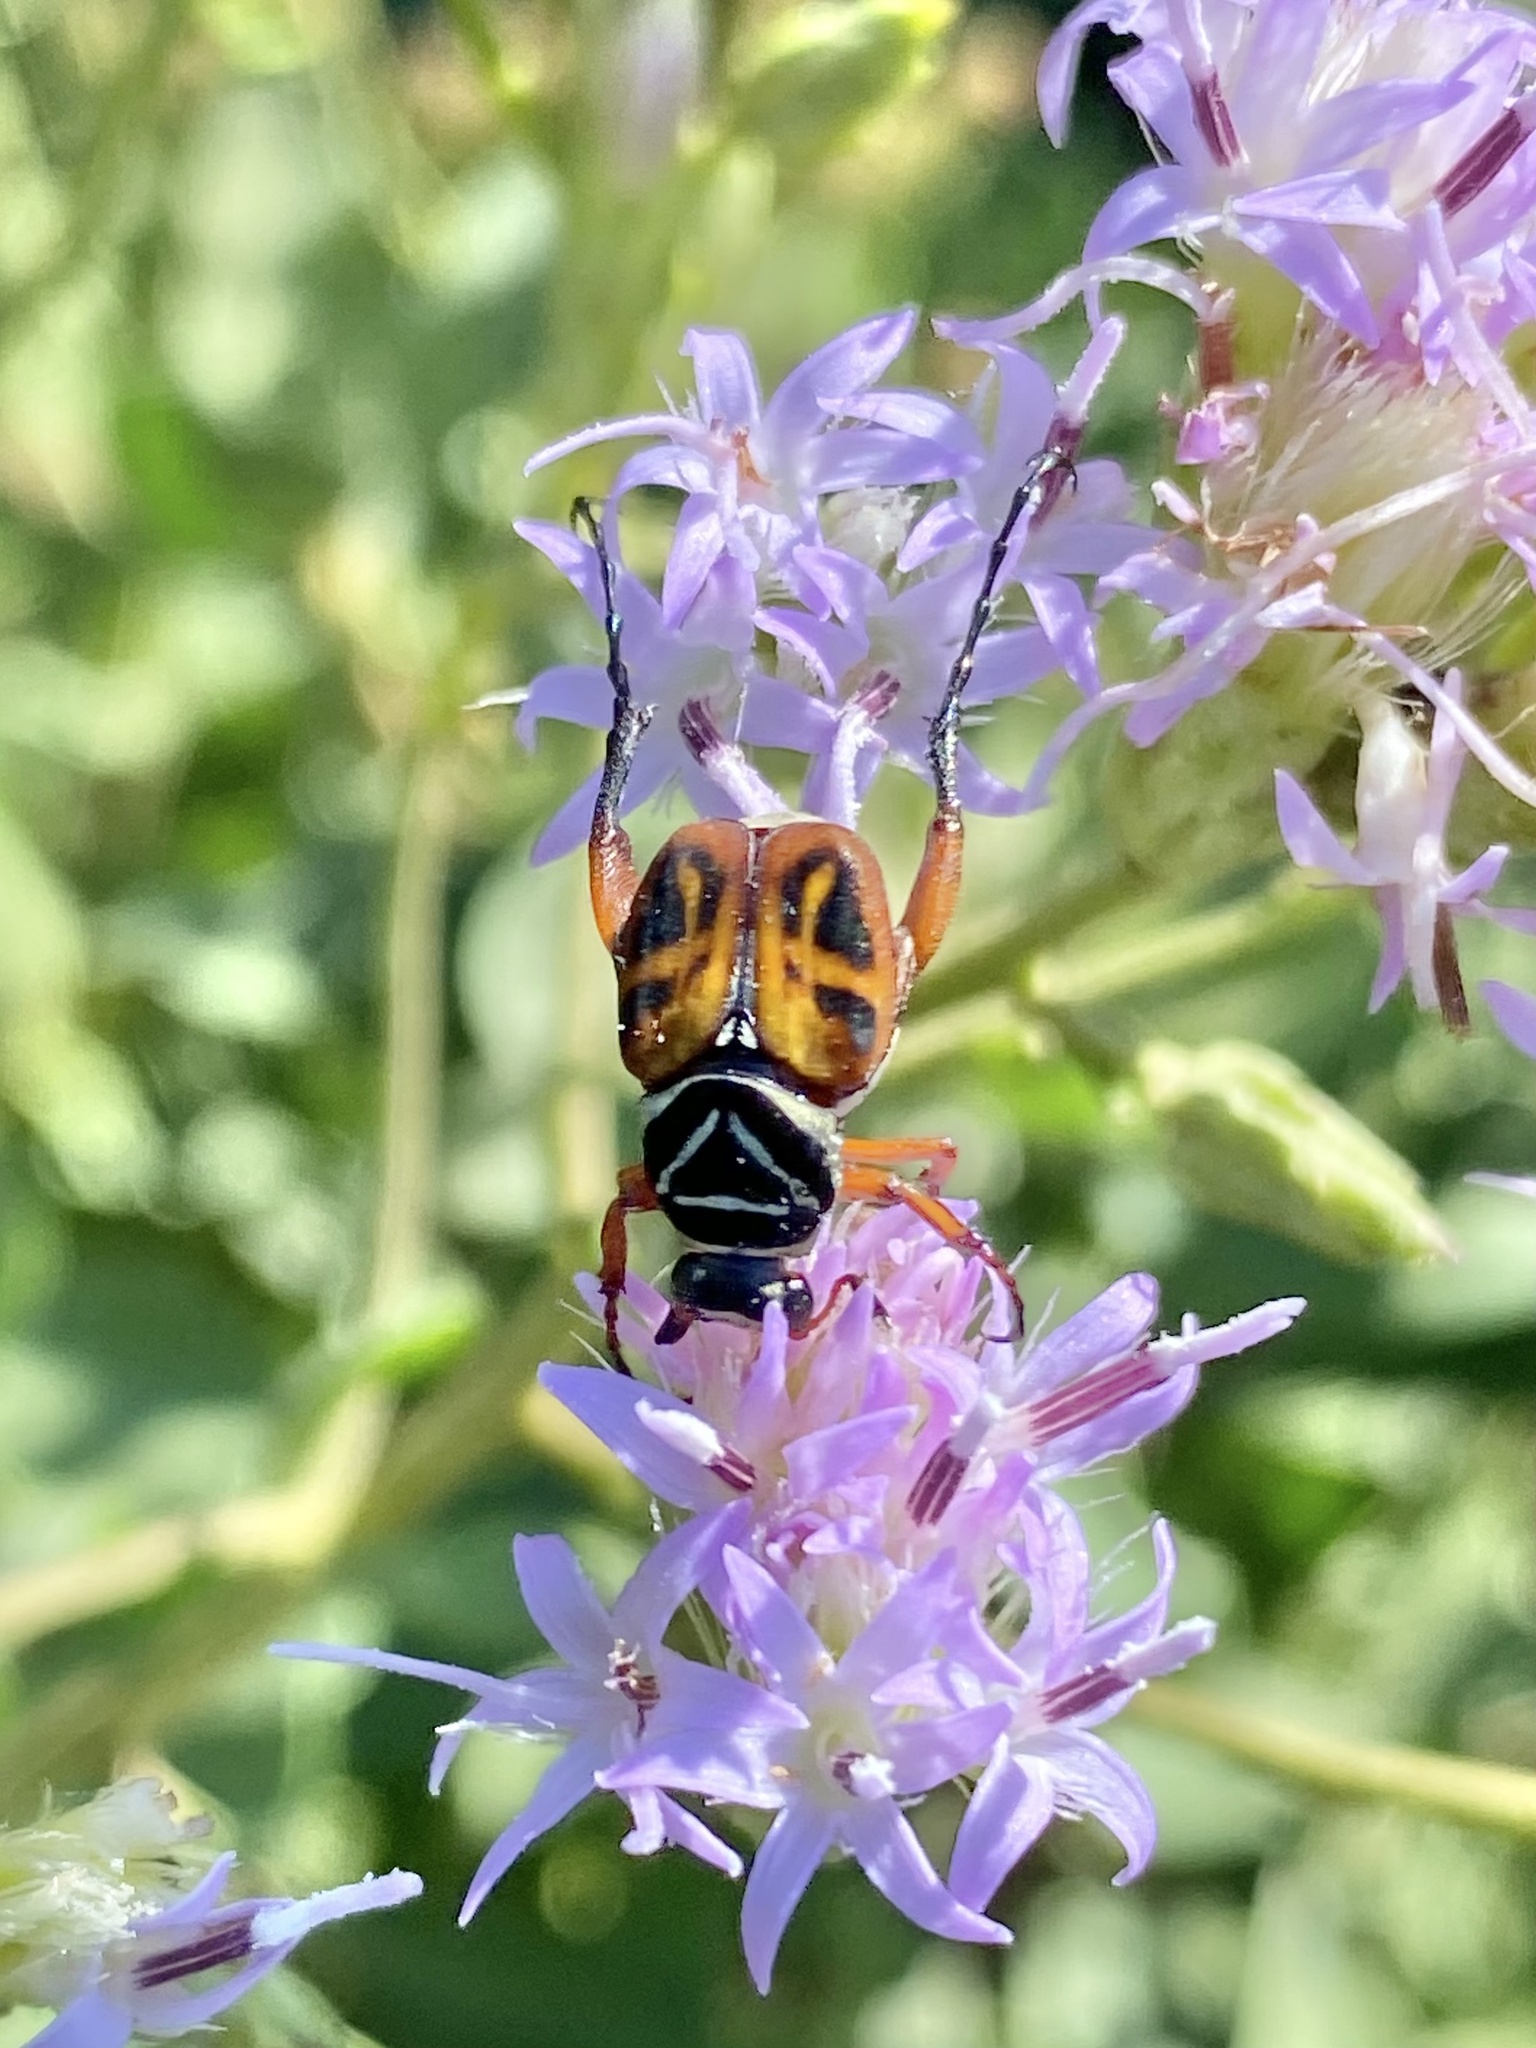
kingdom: Animalia
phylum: Arthropoda
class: Insecta
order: Coleoptera
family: Scarabaeidae
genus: Trigonopeltastes
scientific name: Trigonopeltastes delta
